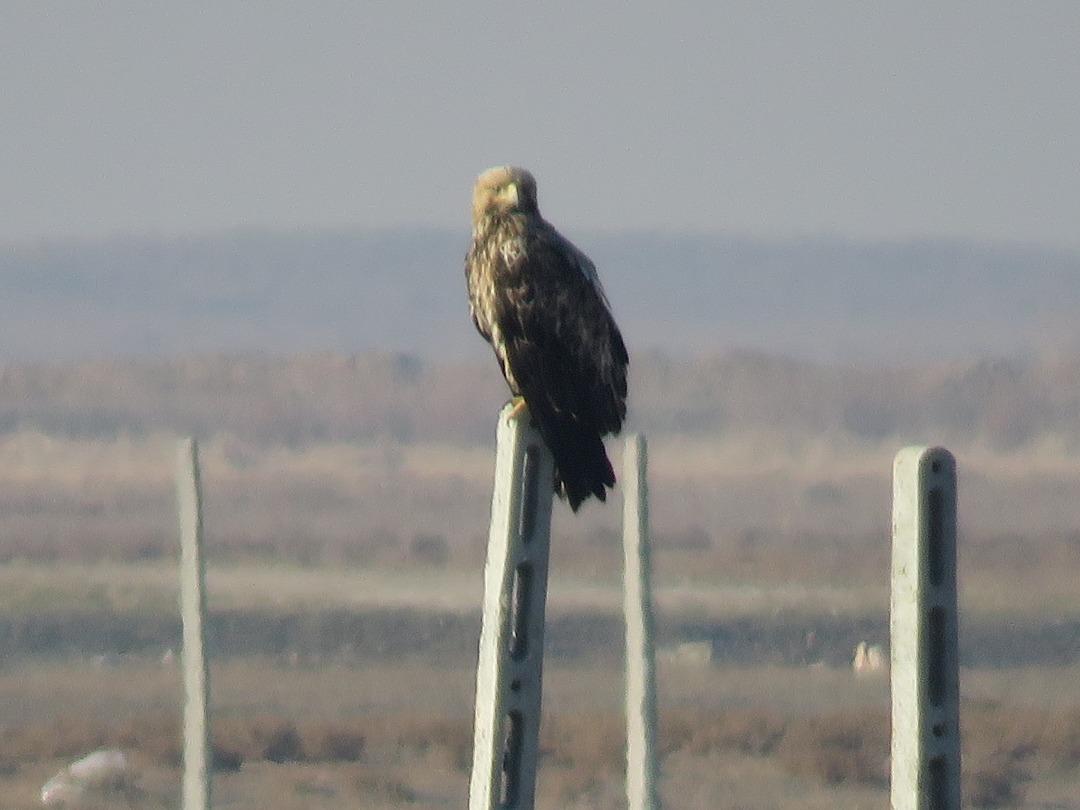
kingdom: Animalia
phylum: Chordata
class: Aves
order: Accipitriformes
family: Accipitridae
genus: Aquila
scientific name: Aquila heliaca
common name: Eastern imperial eagle
